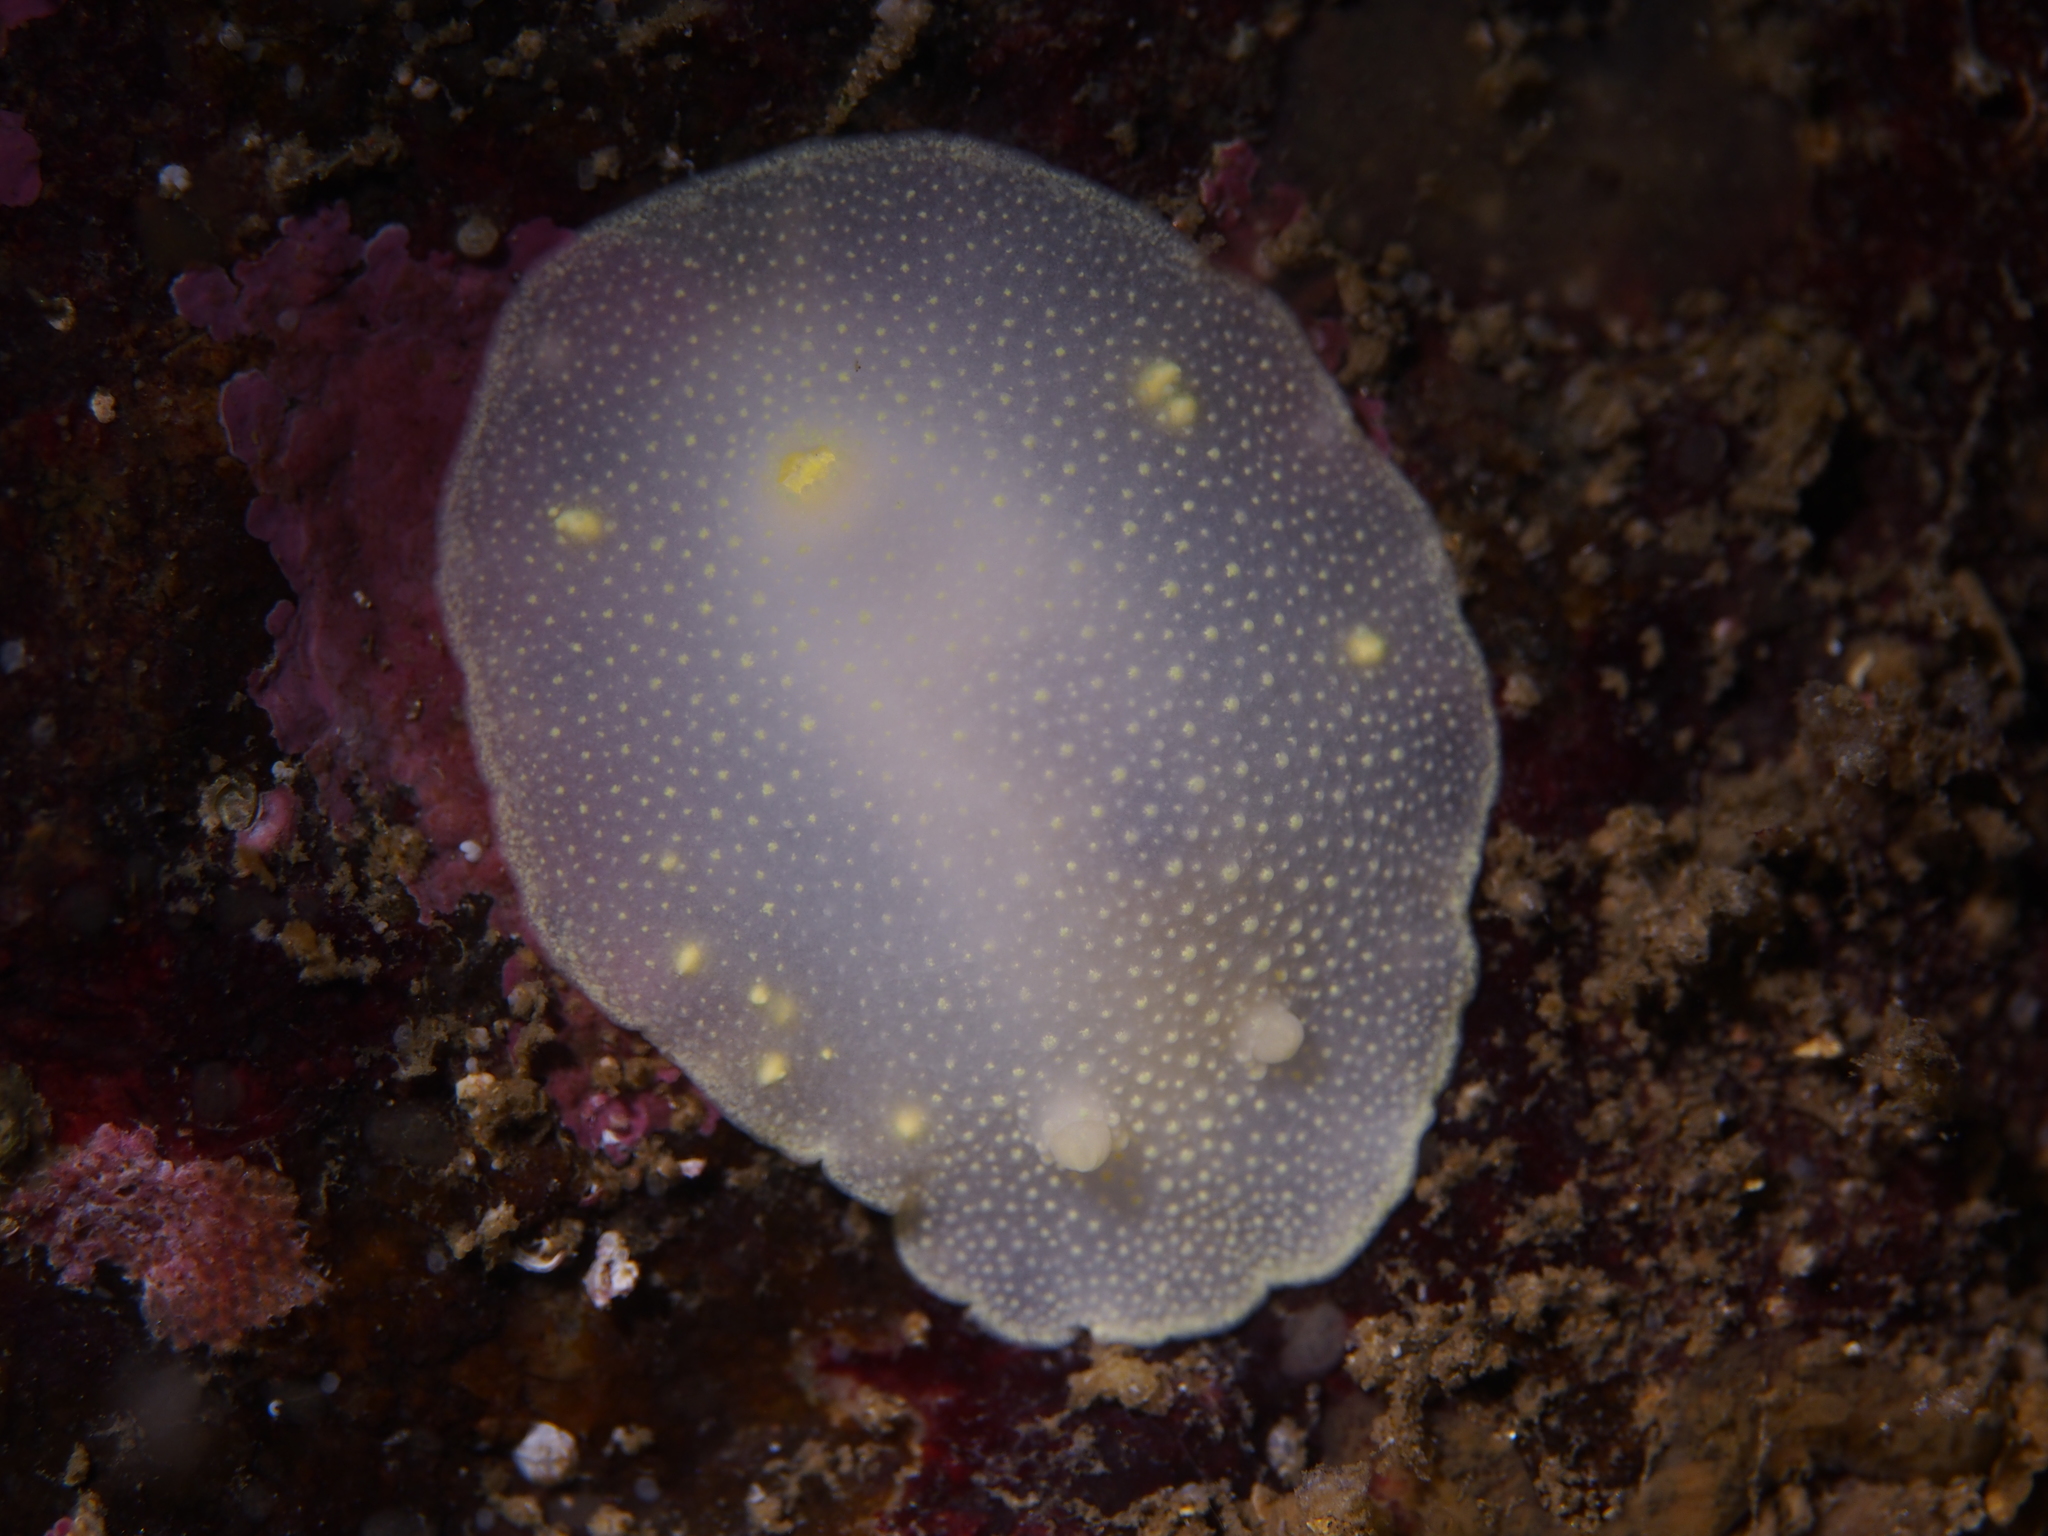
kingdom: Animalia
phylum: Mollusca
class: Gastropoda
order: Nudibranchia
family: Cadlinidae
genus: Cadlina
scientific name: Cadlina laevis
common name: White atlantic cadlina
